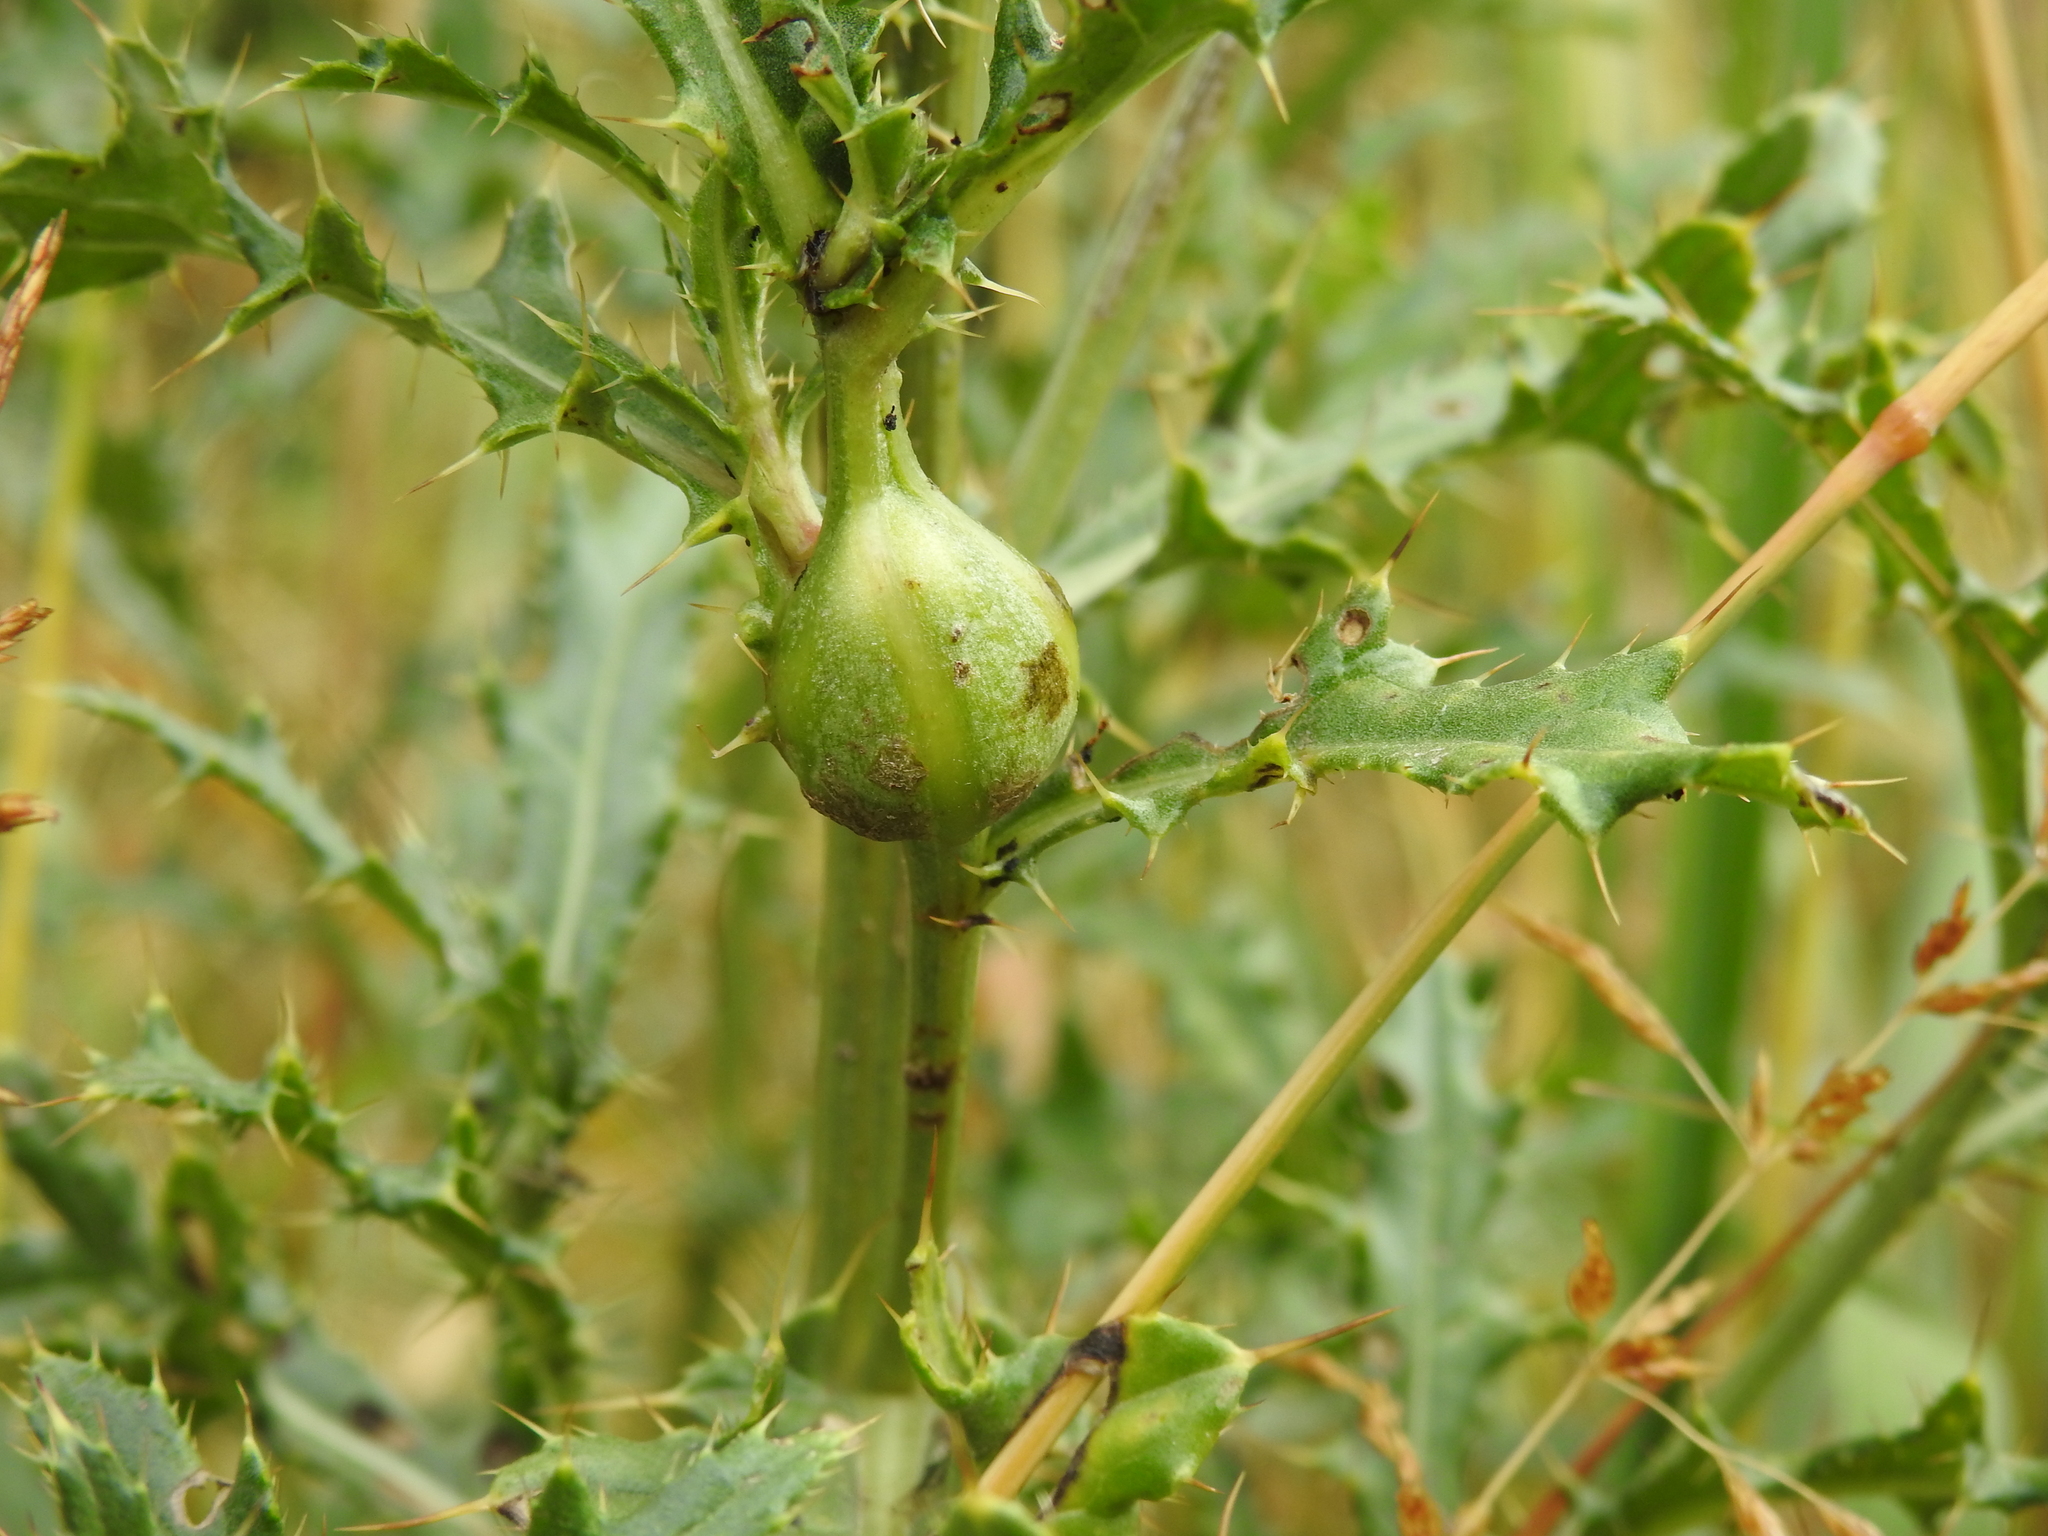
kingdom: Animalia
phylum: Arthropoda
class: Insecta
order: Diptera
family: Tephritidae
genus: Urophora
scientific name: Urophora cardui
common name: Fruit fly
